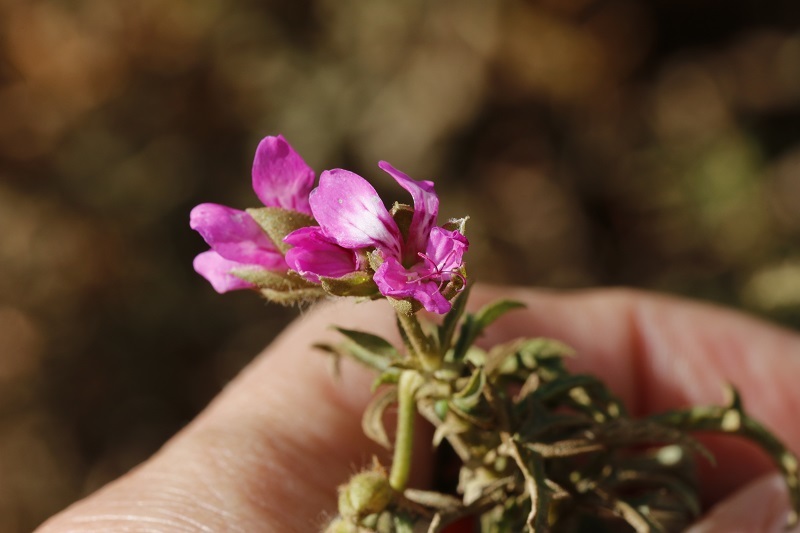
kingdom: Plantae
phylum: Tracheophyta
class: Magnoliopsida
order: Geraniales
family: Geraniaceae
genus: Pelargonium
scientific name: Pelargonium glutinosum
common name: Pheasant-foot geranium
